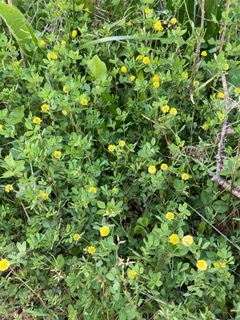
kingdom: Plantae
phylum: Tracheophyta
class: Magnoliopsida
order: Fabales
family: Fabaceae
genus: Trifolium
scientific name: Trifolium campestre
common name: Field clover
